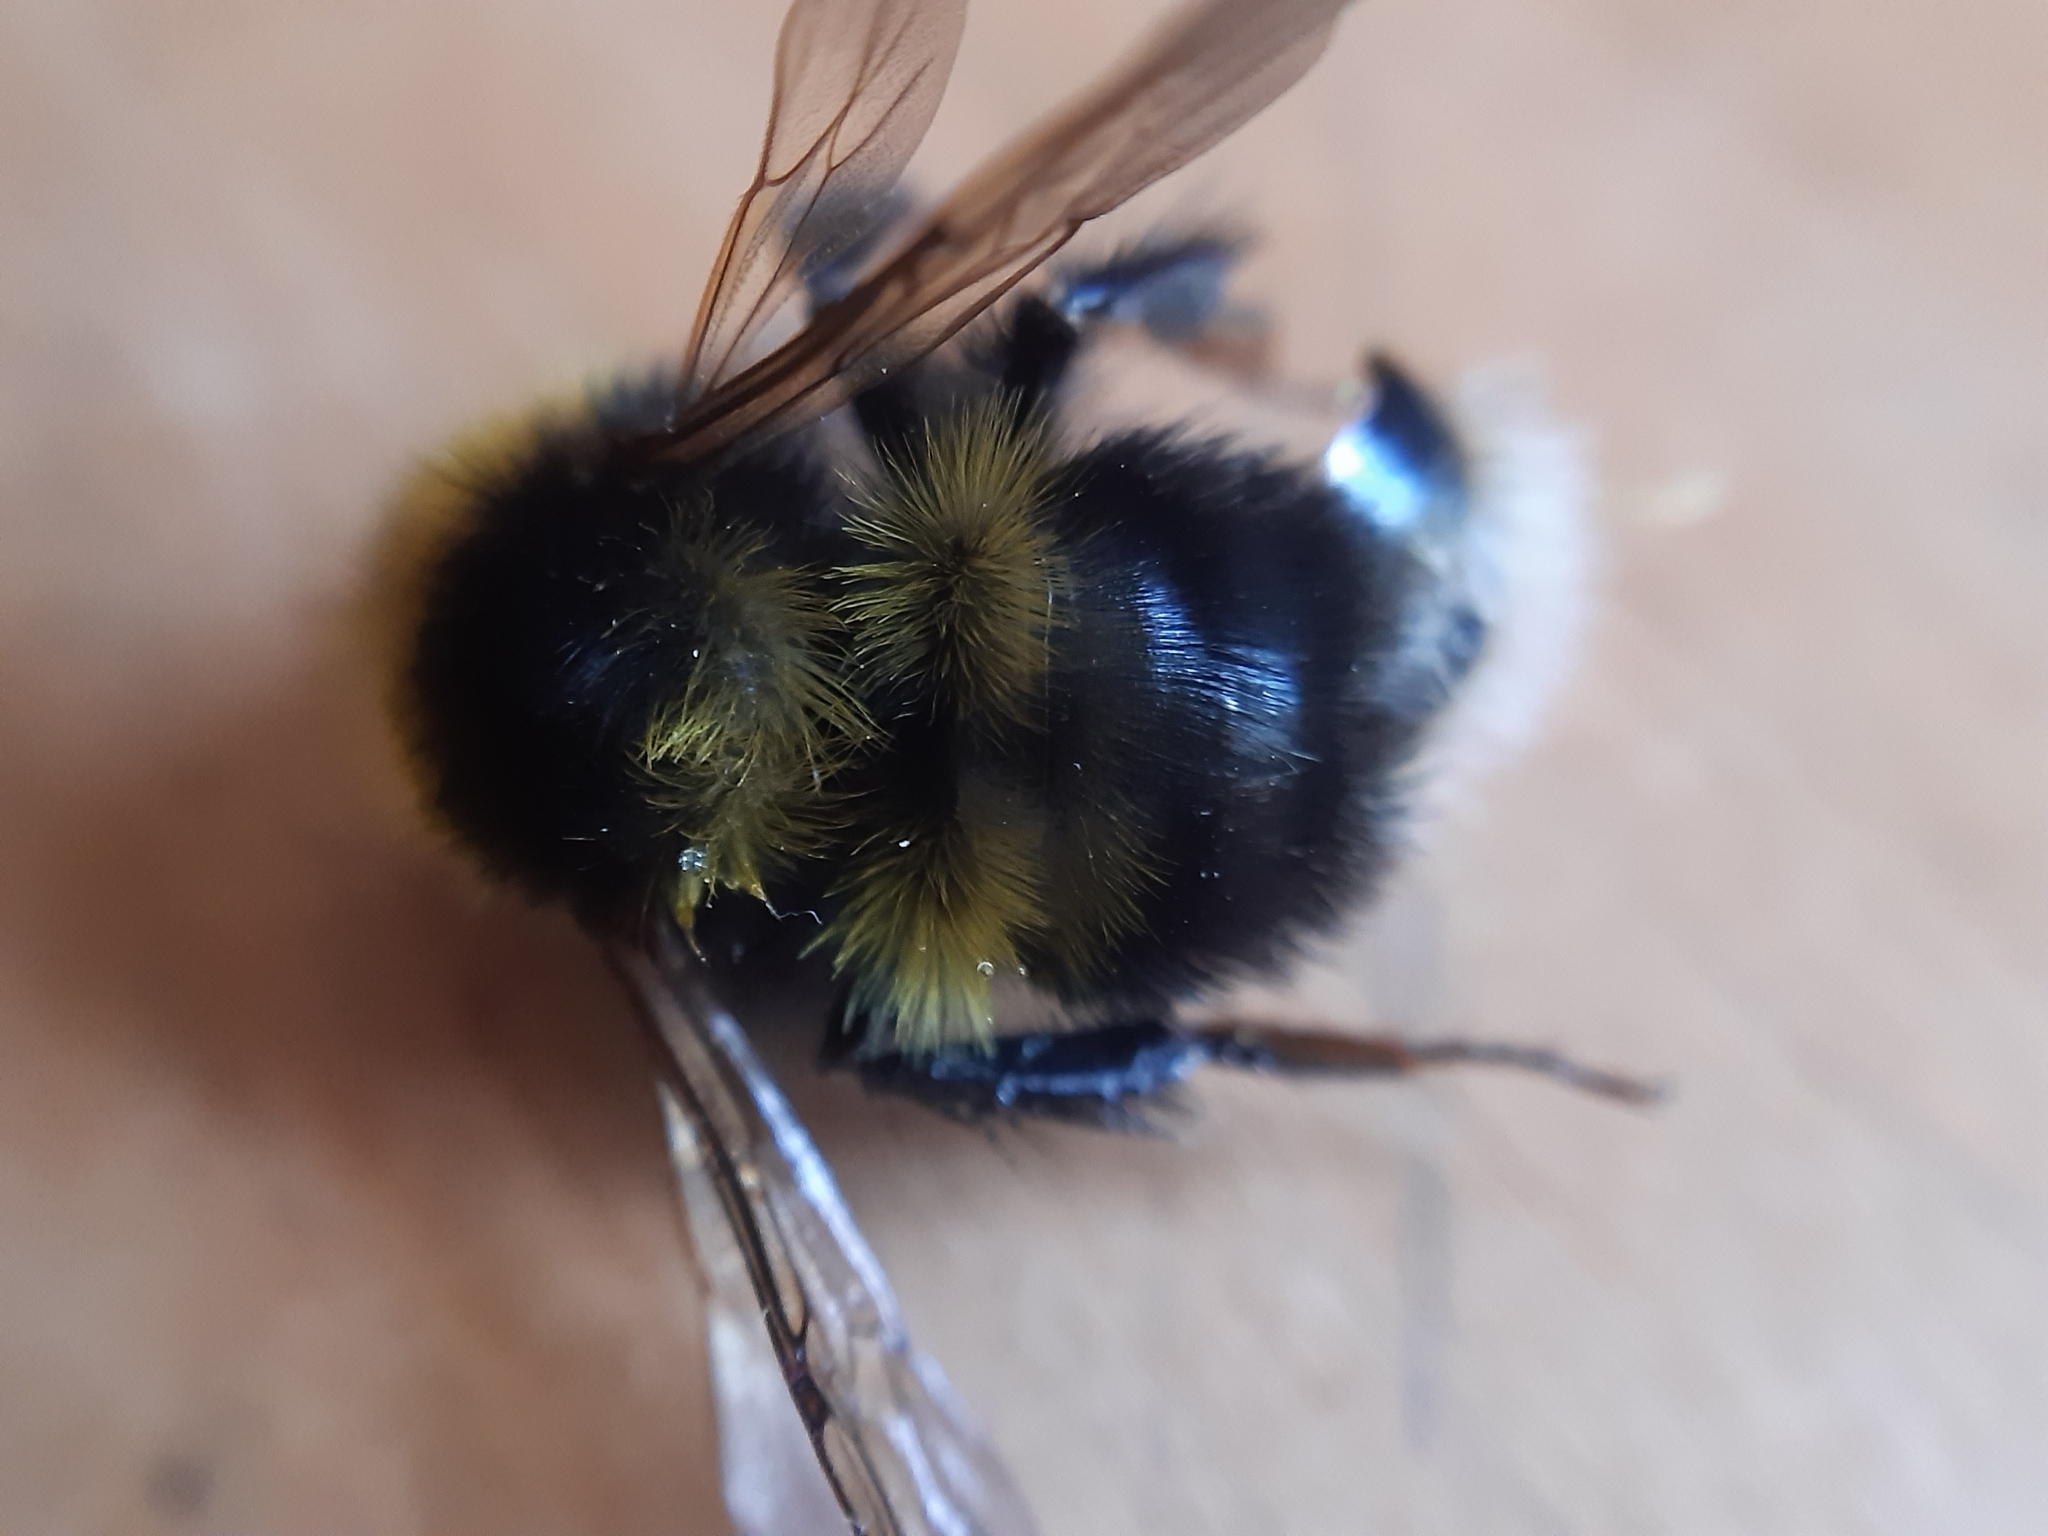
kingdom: Animalia
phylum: Arthropoda
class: Insecta
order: Hymenoptera
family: Apidae
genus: Bombus
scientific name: Bombus hortorum
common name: Garden bumblebee
